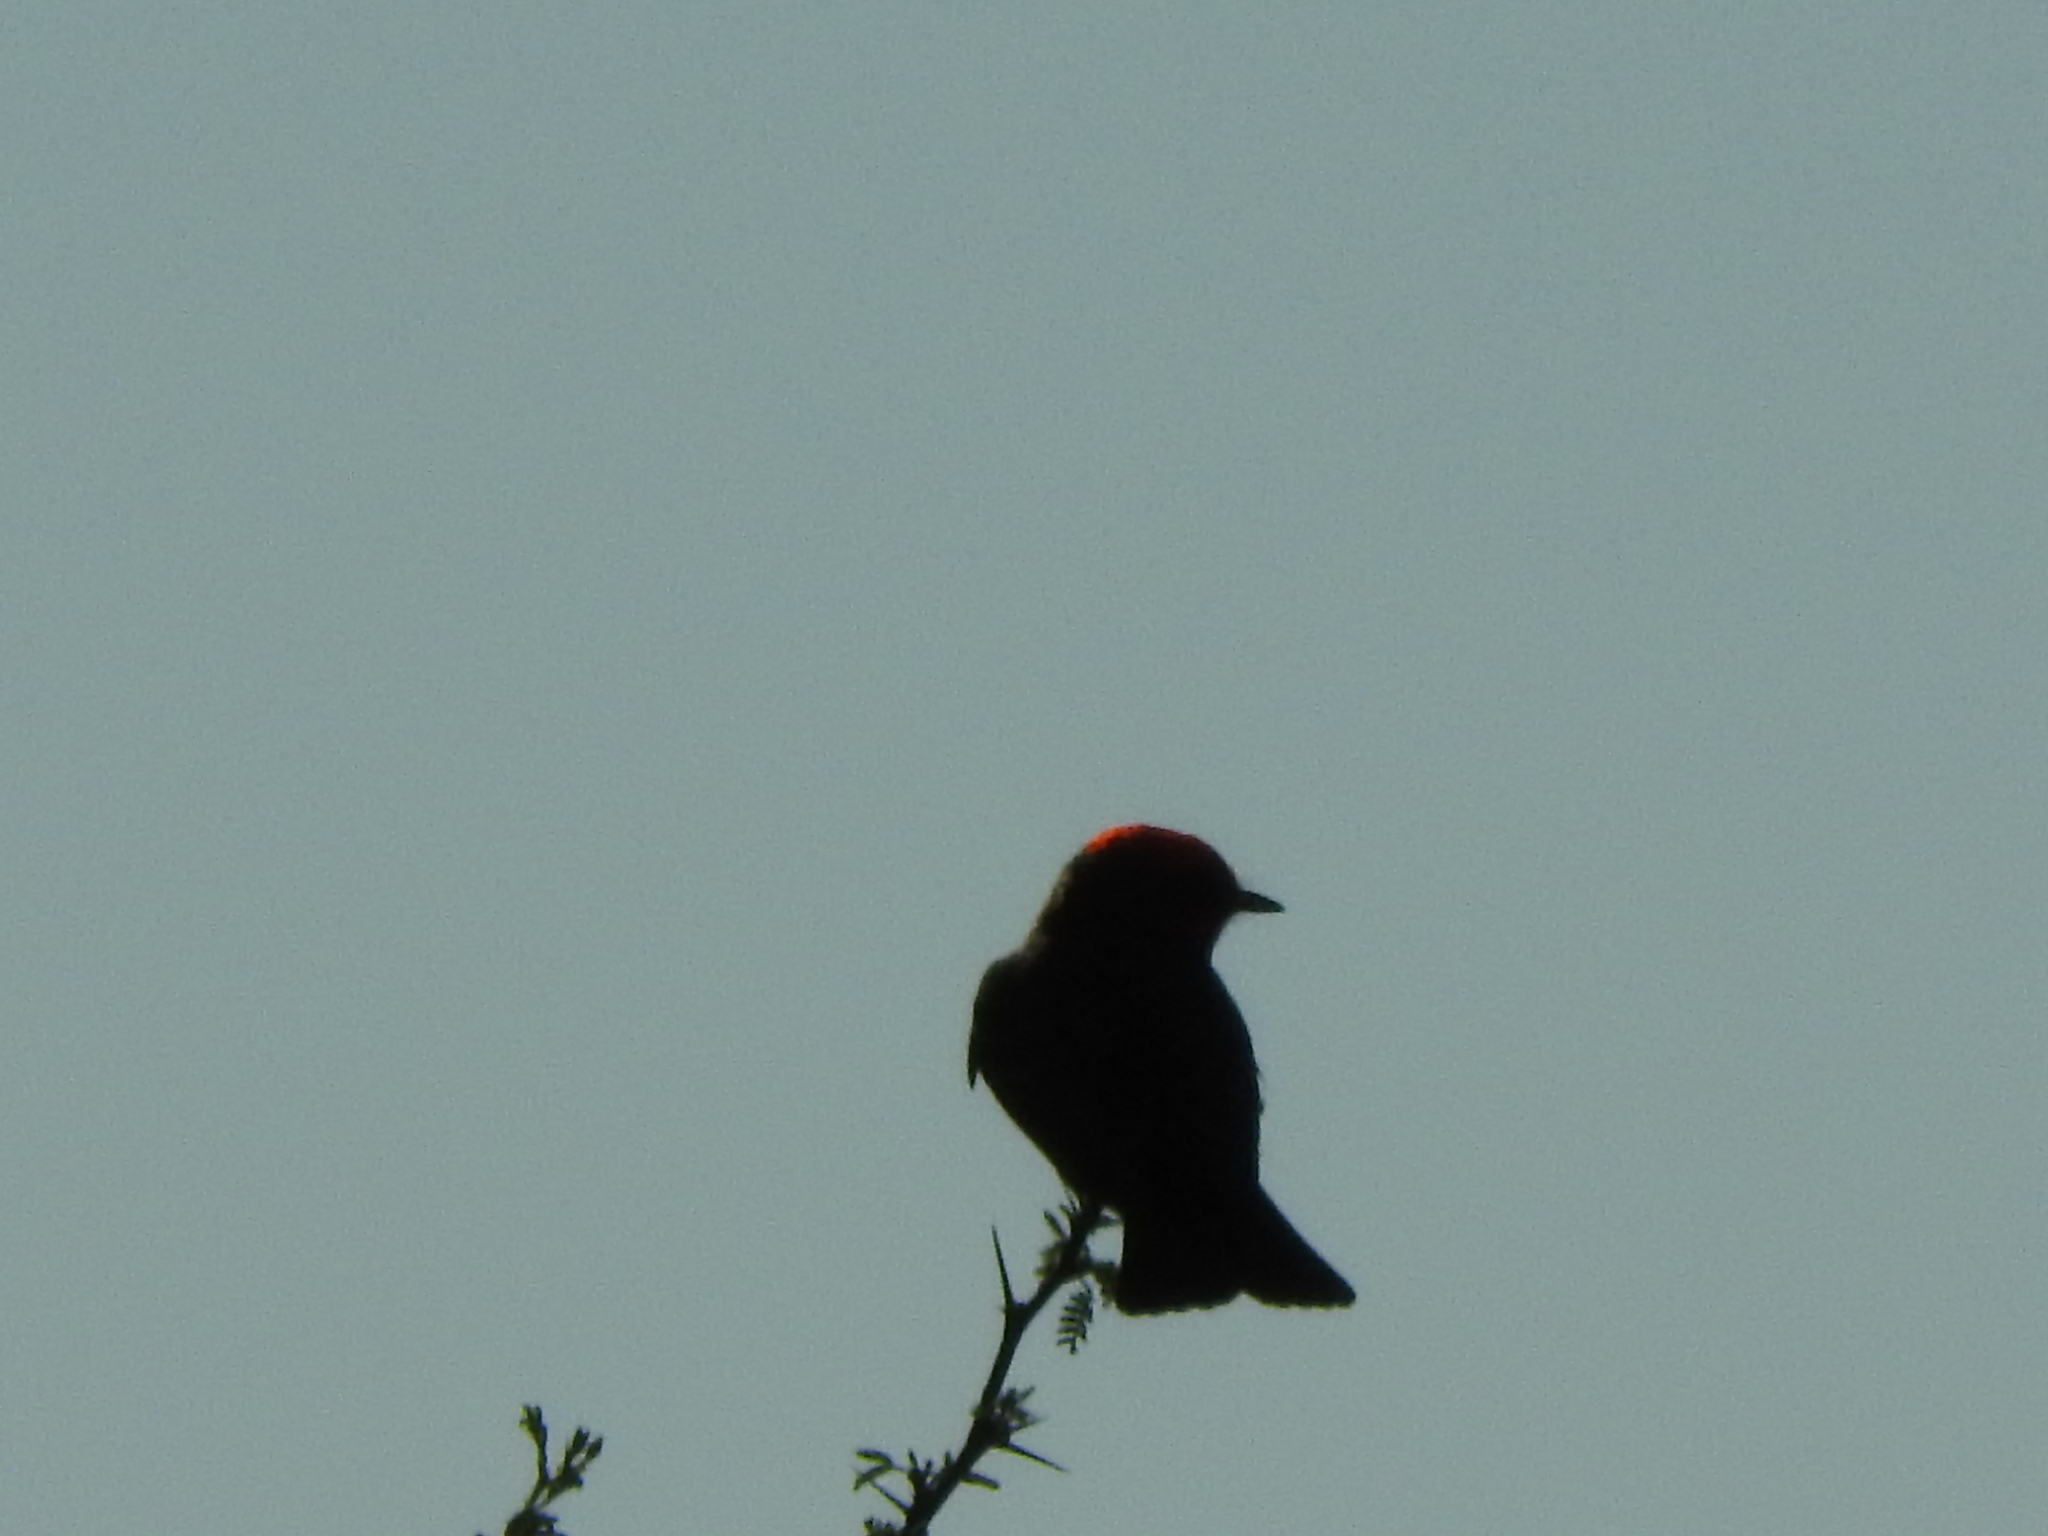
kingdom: Animalia
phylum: Chordata
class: Aves
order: Passeriformes
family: Tyrannidae
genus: Pyrocephalus
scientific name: Pyrocephalus rubinus
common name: Vermilion flycatcher
